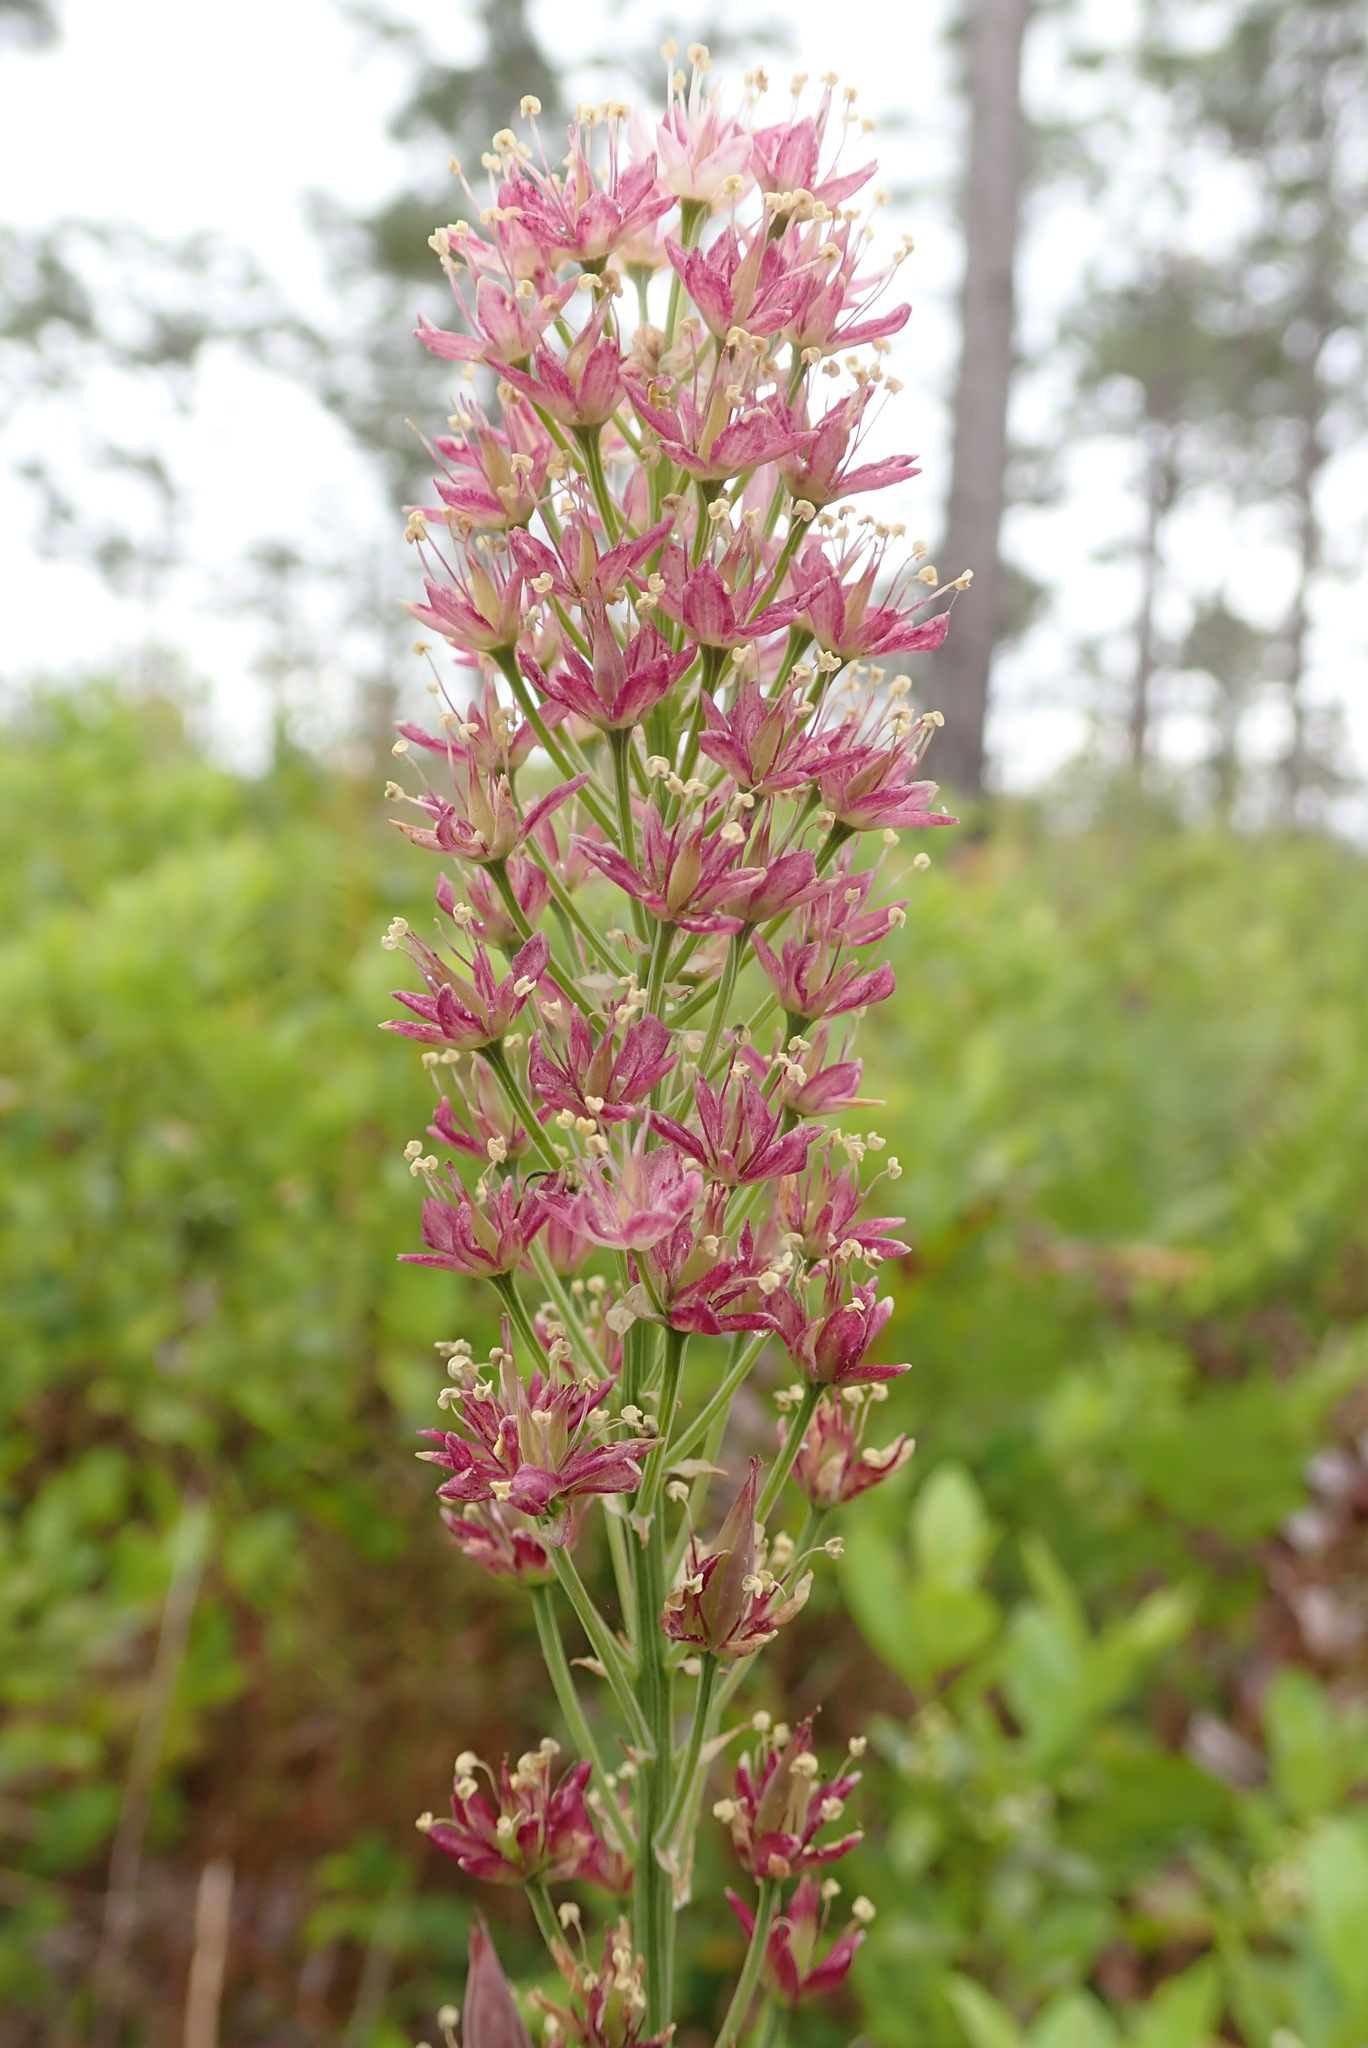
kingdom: Plantae
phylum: Tracheophyta
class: Liliopsida
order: Liliales
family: Melanthiaceae
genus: Stenanthium
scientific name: Stenanthium densum
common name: Crow-poison
